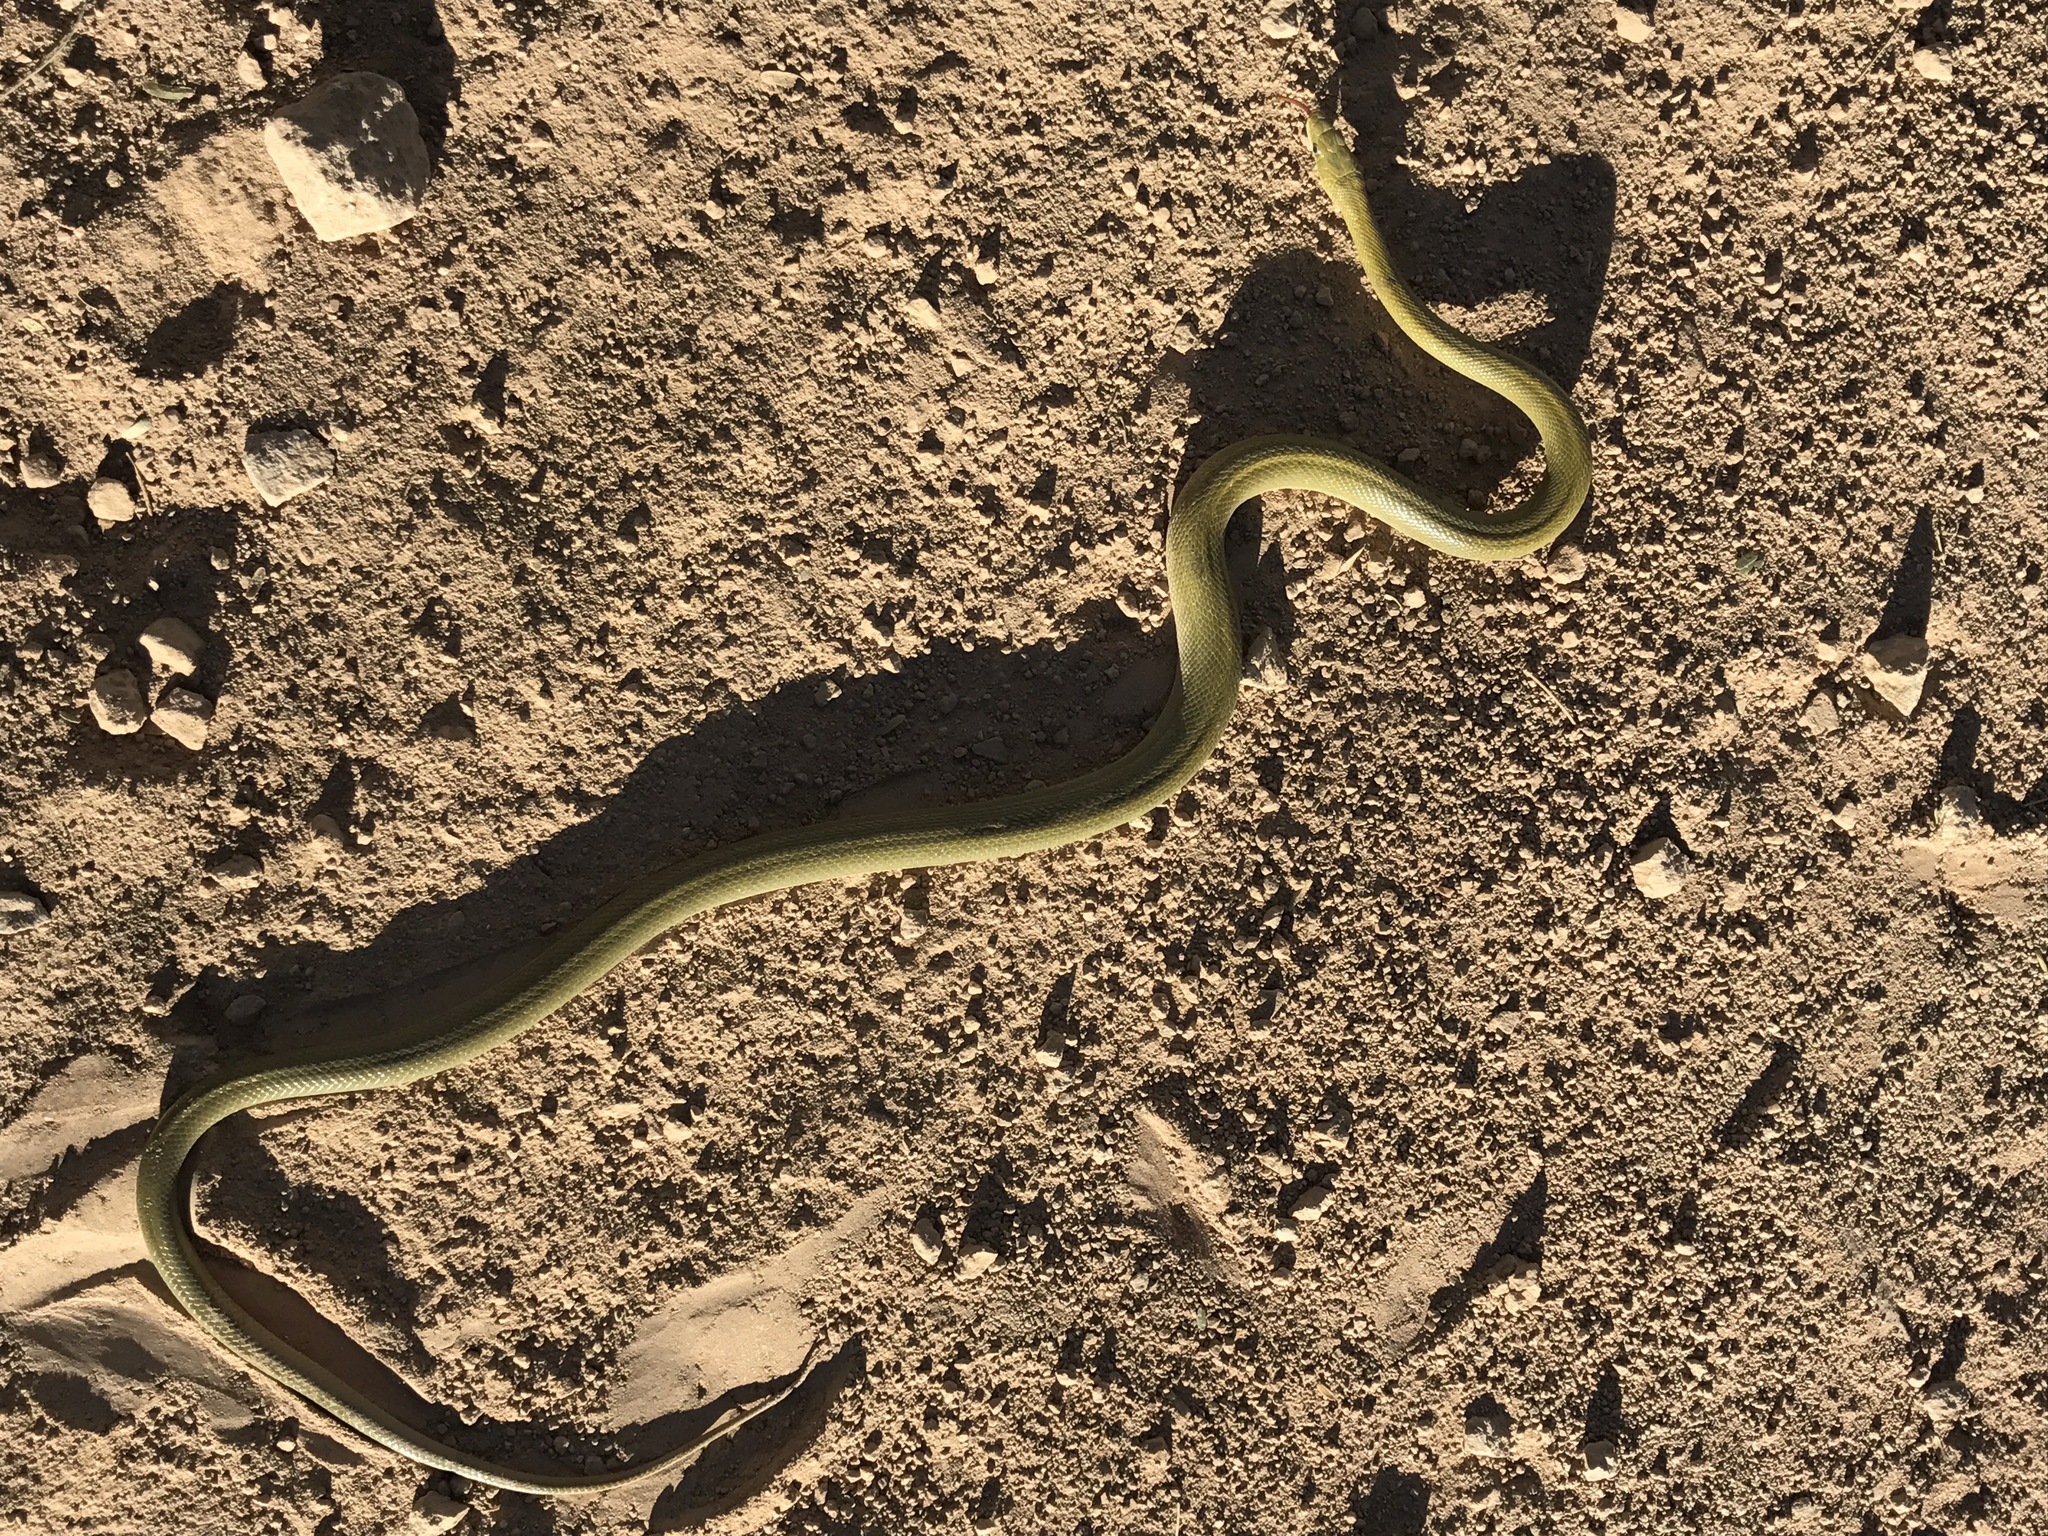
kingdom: Animalia
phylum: Chordata
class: Squamata
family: Colubridae
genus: Senticolis
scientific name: Senticolis triaspis
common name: Green rat snake
